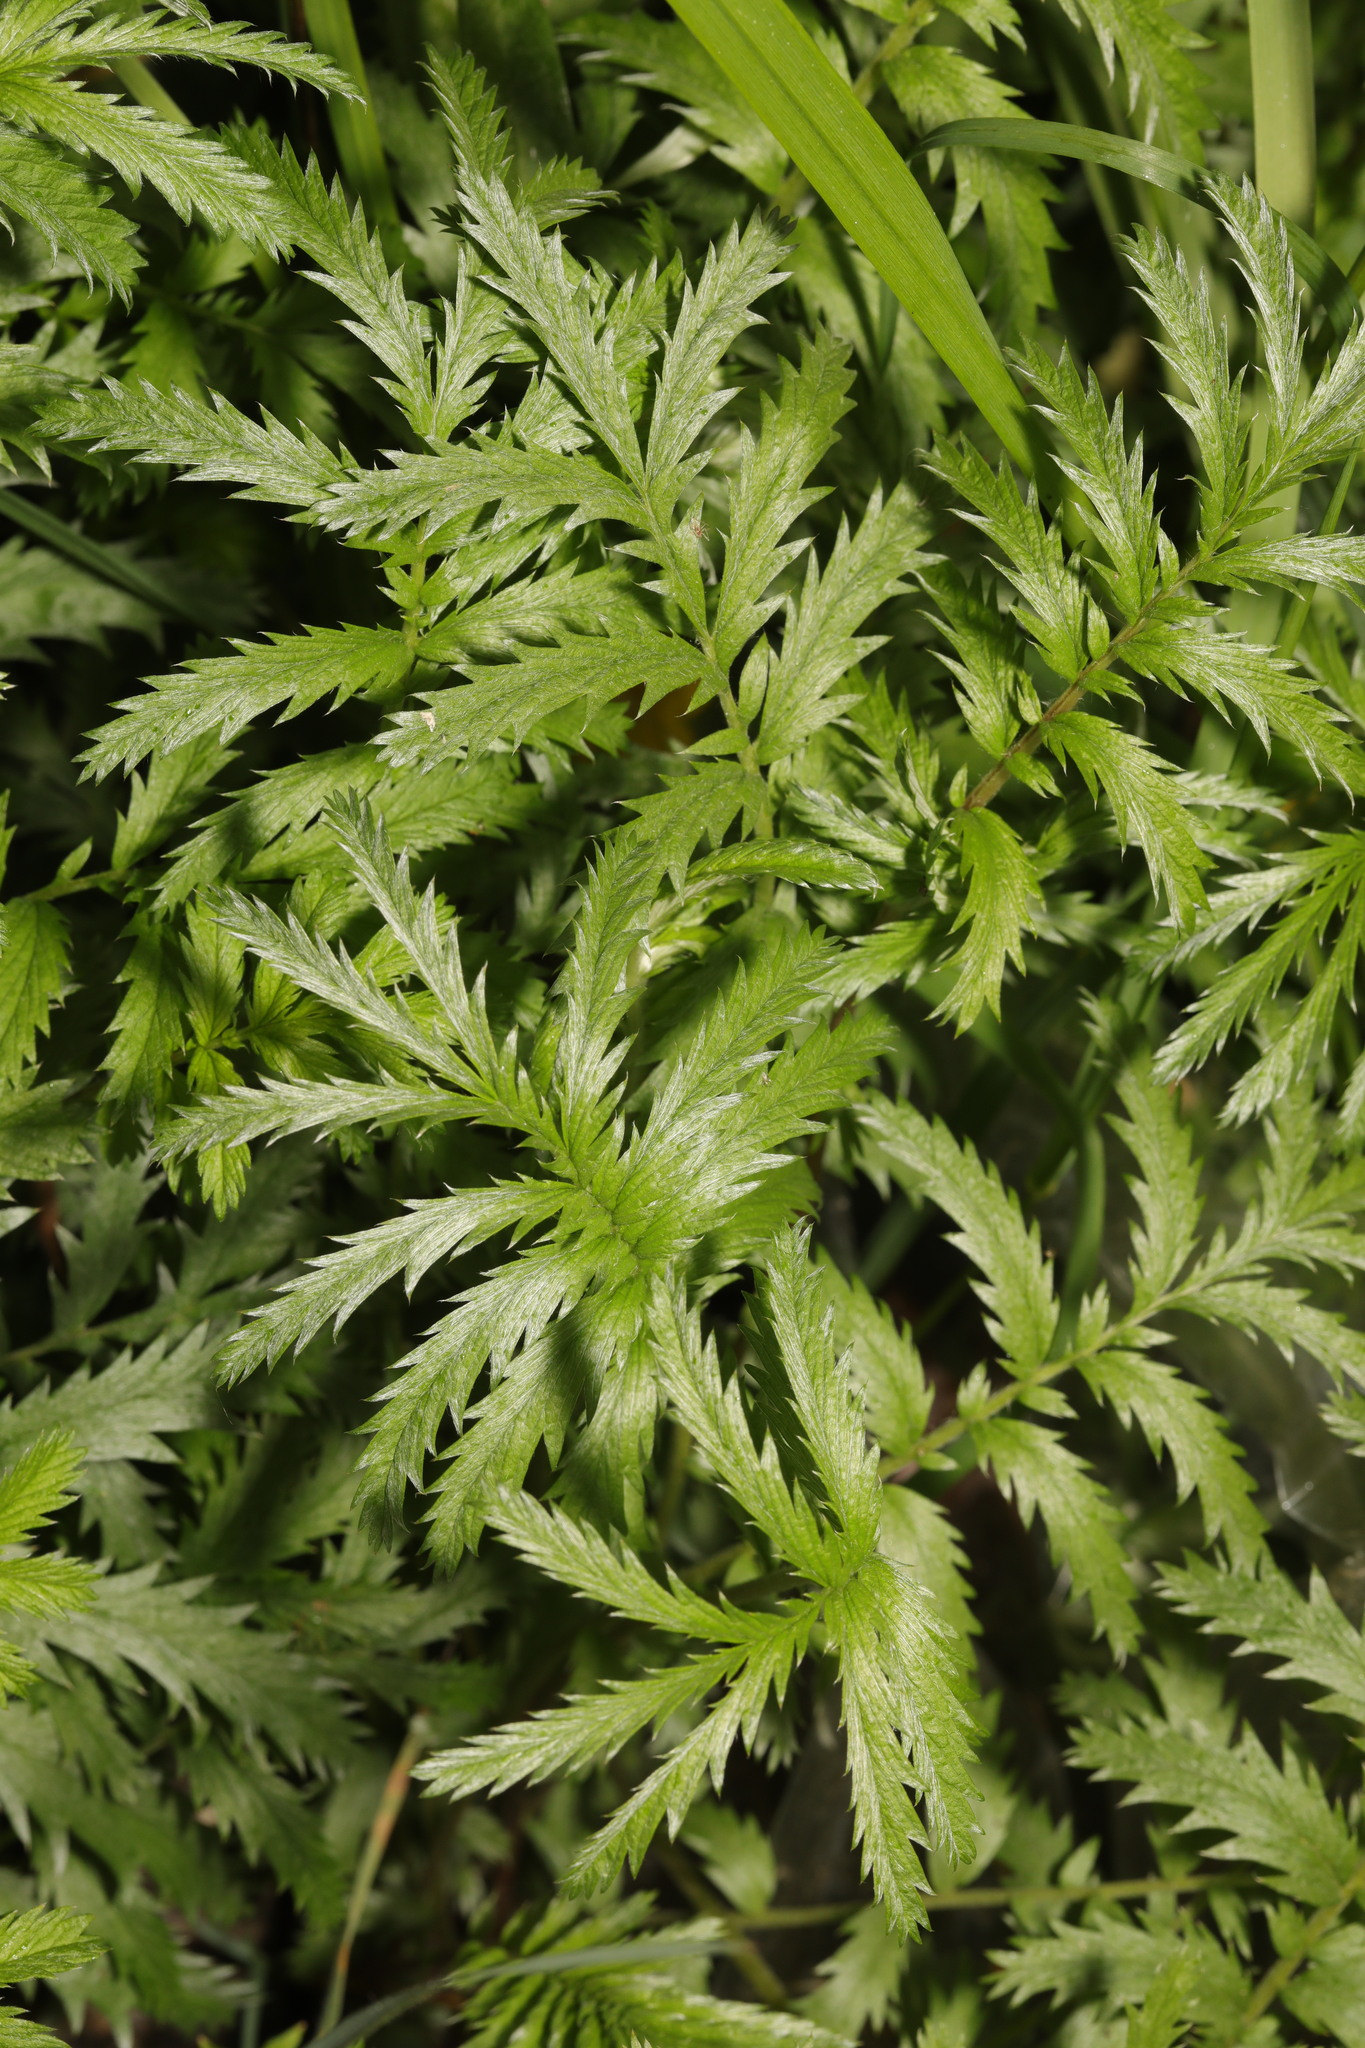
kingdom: Plantae
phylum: Tracheophyta
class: Magnoliopsida
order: Rosales
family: Rosaceae
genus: Argentina
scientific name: Argentina anserina
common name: Common silverweed
